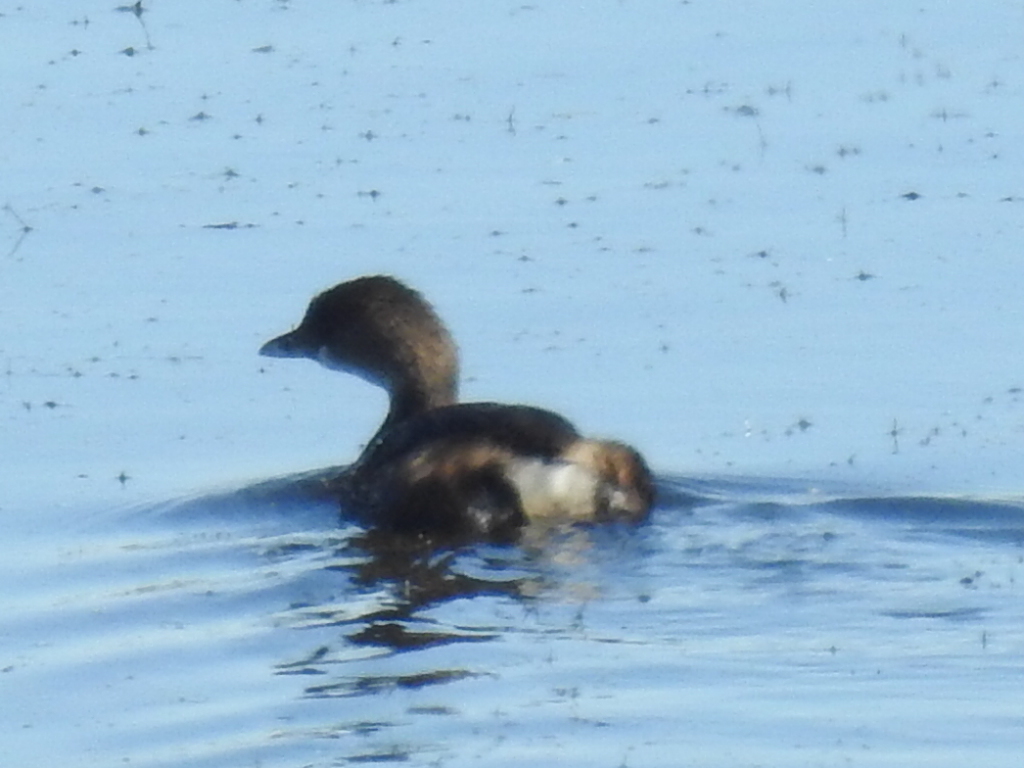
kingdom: Animalia
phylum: Chordata
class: Aves
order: Podicipediformes
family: Podicipedidae
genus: Podilymbus
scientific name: Podilymbus podiceps
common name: Pied-billed grebe
